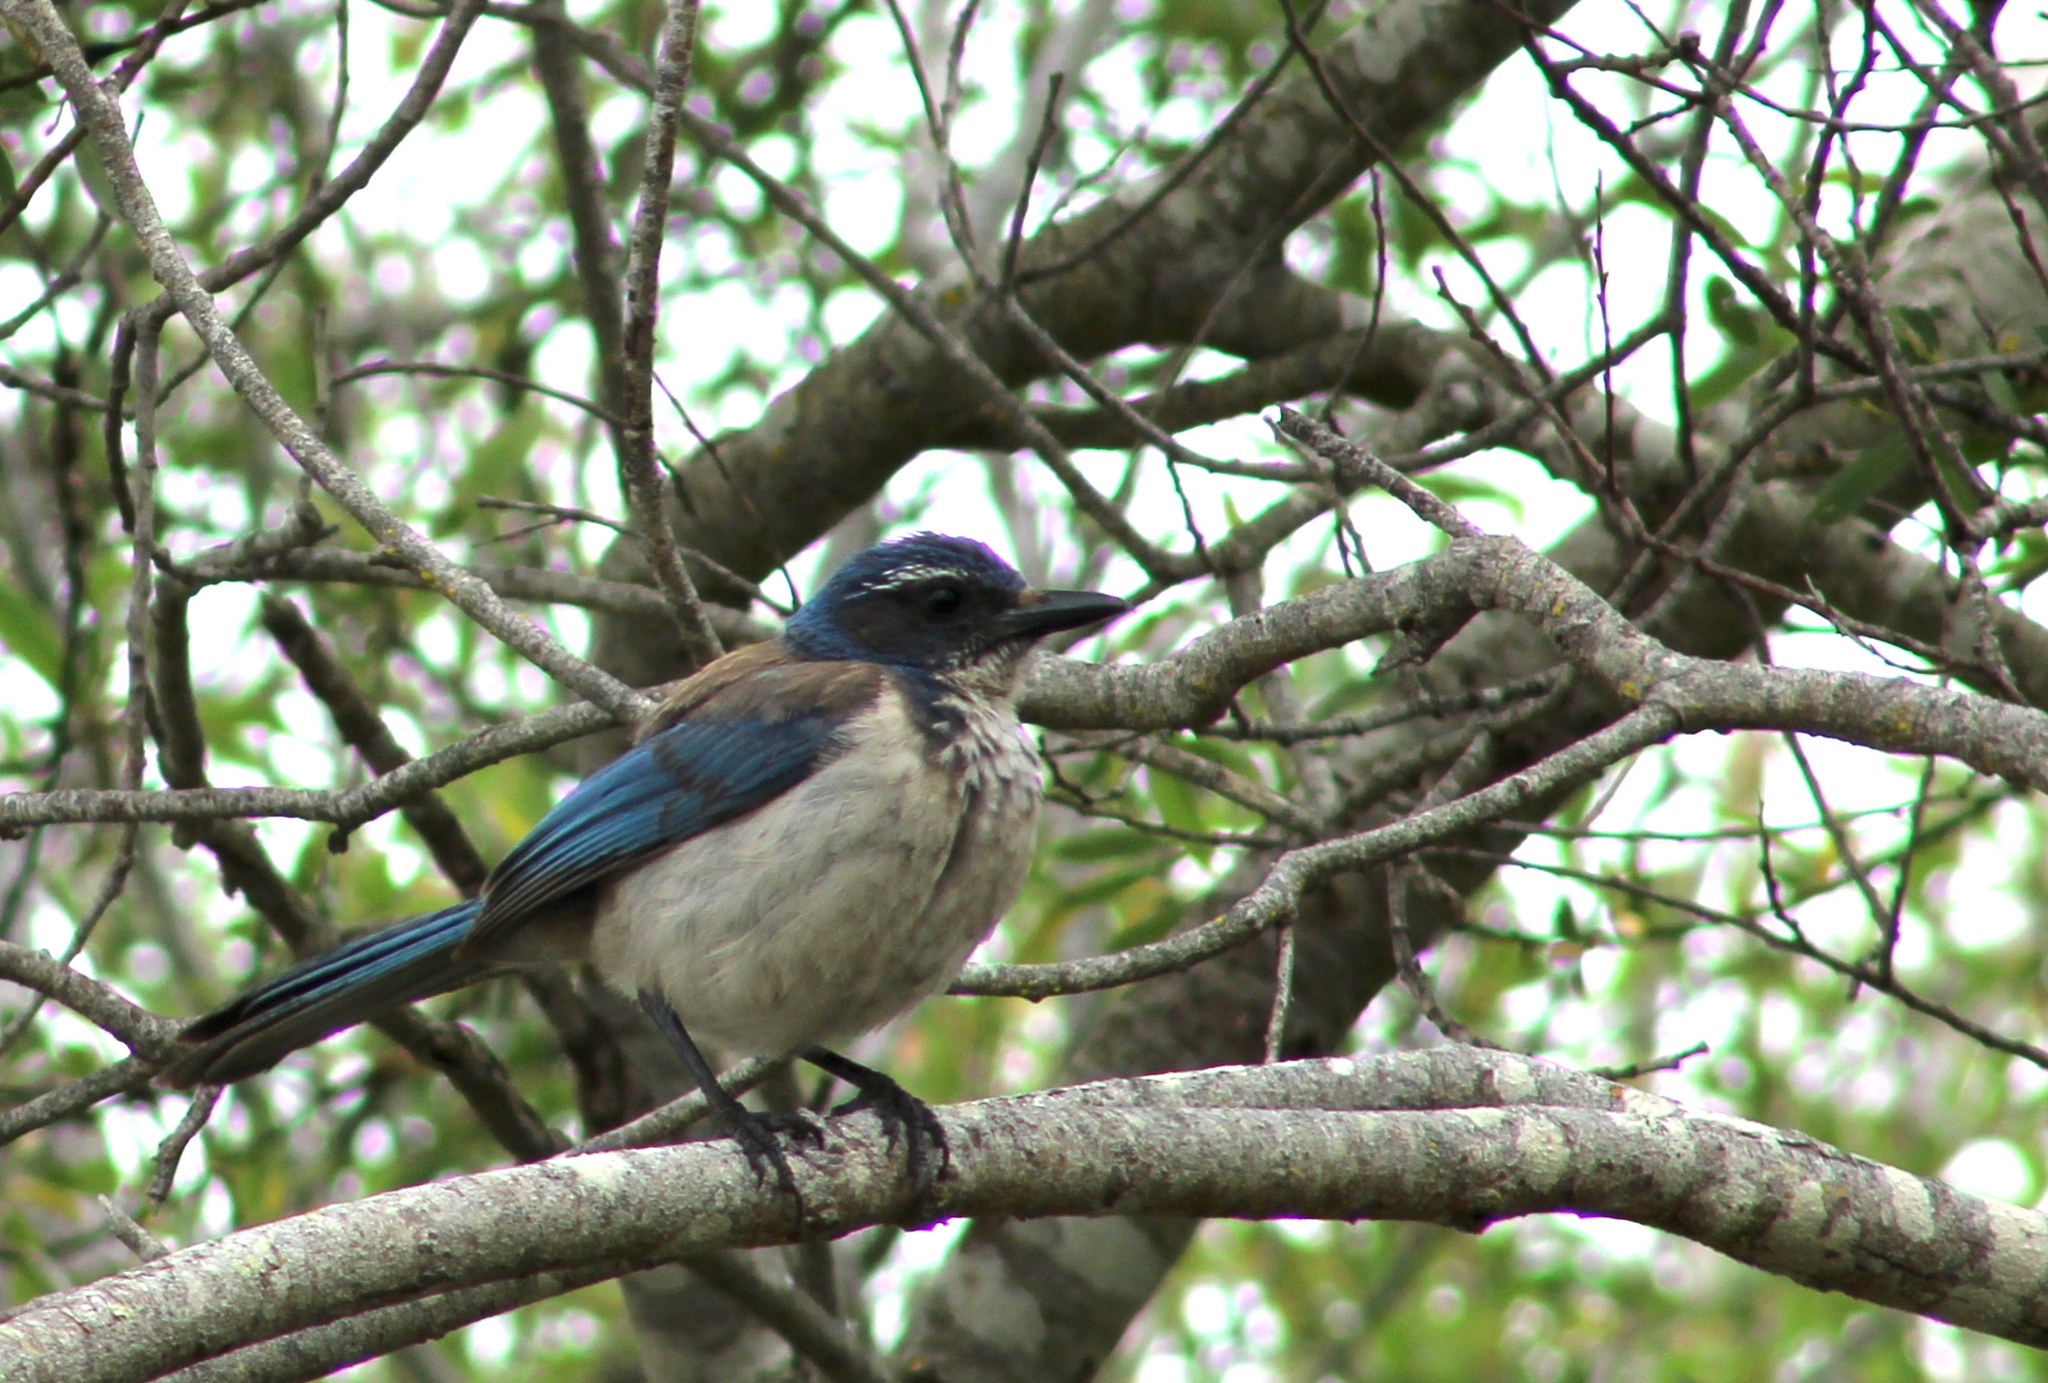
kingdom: Animalia
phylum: Chordata
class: Aves
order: Passeriformes
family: Corvidae
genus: Aphelocoma
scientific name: Aphelocoma californica
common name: California scrub-jay
